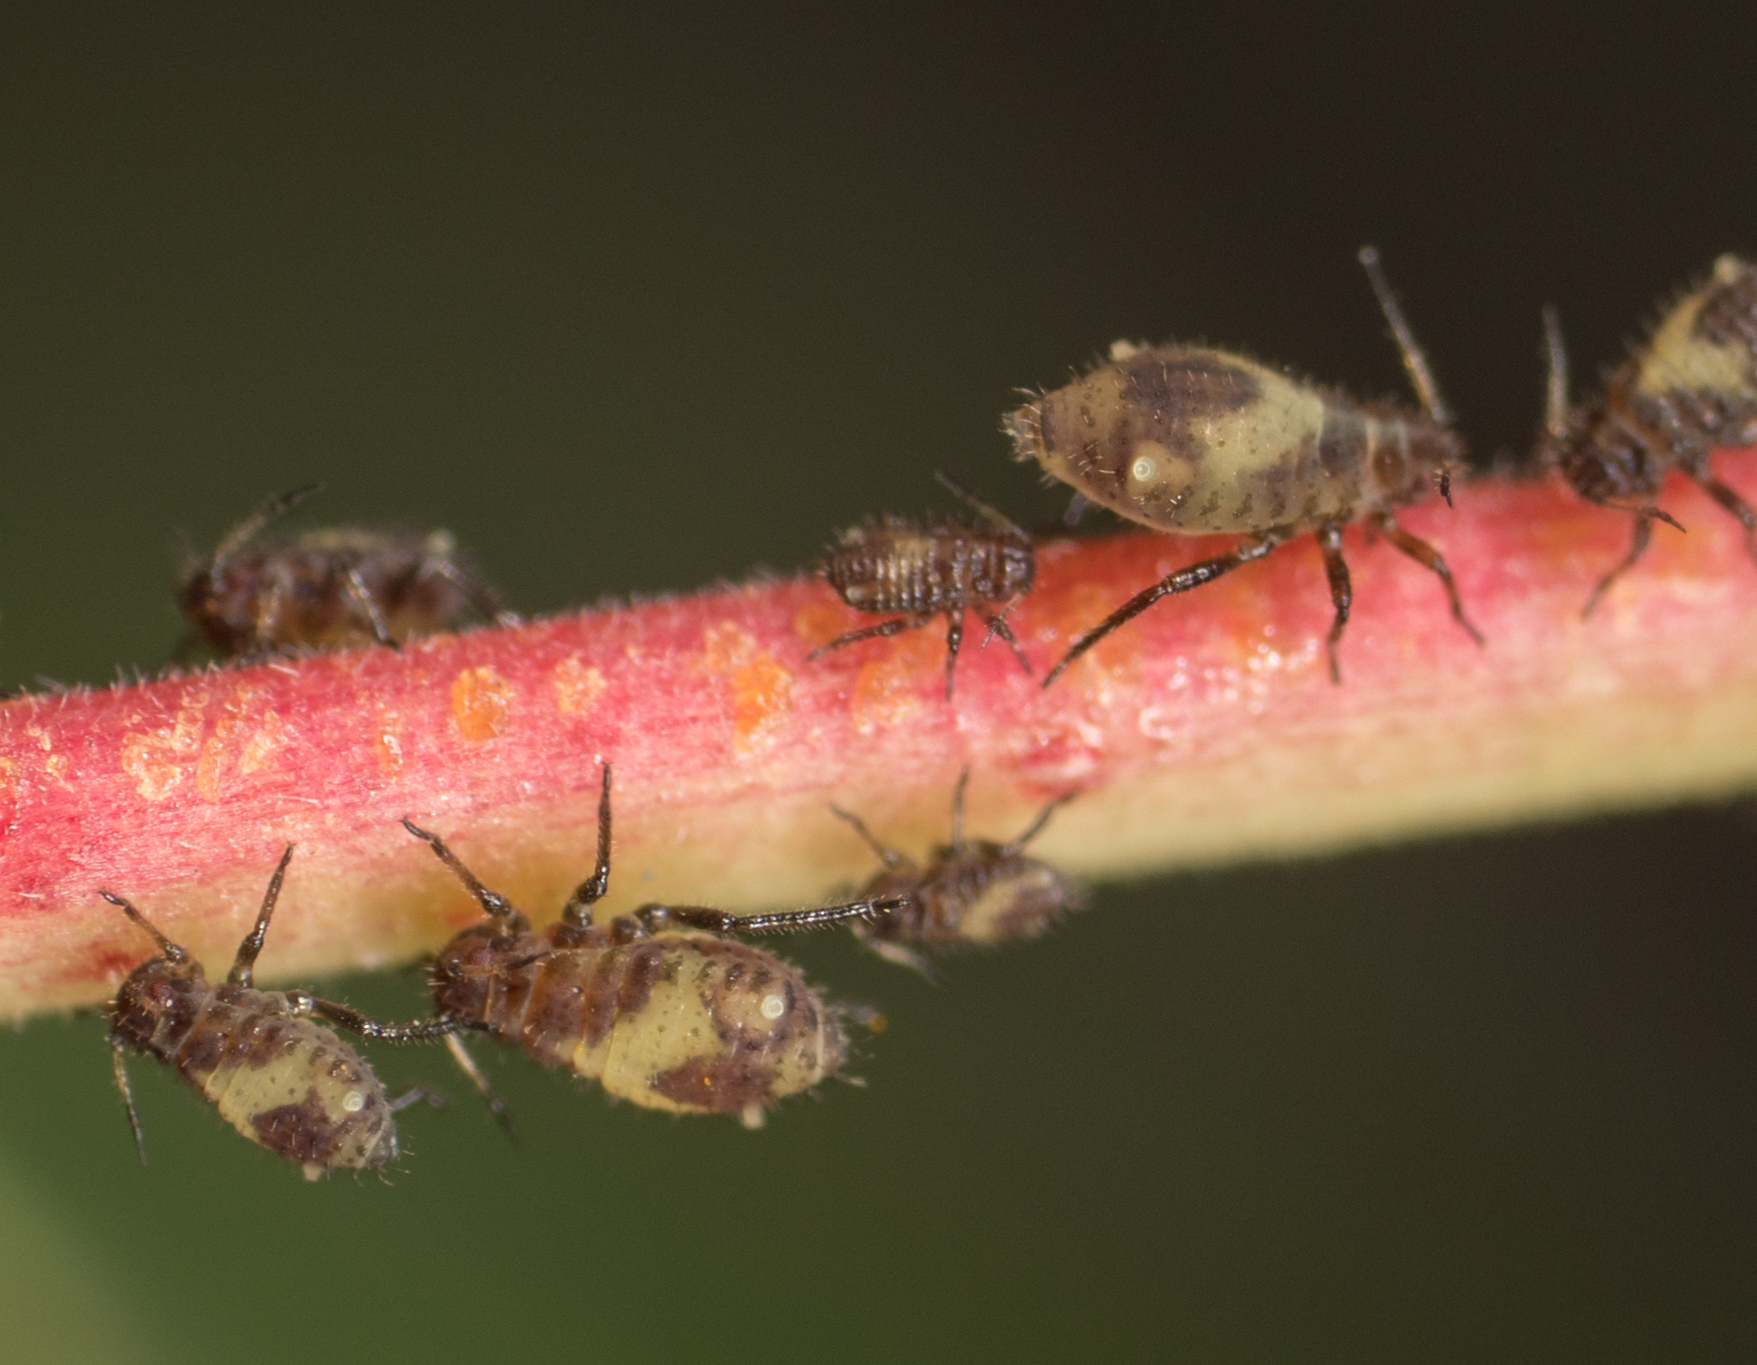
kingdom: Animalia
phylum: Arthropoda
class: Insecta
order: Hemiptera
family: Aphididae
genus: Chaitophorus
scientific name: Chaitophorus populicola
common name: Smokywinged poplar aphid
